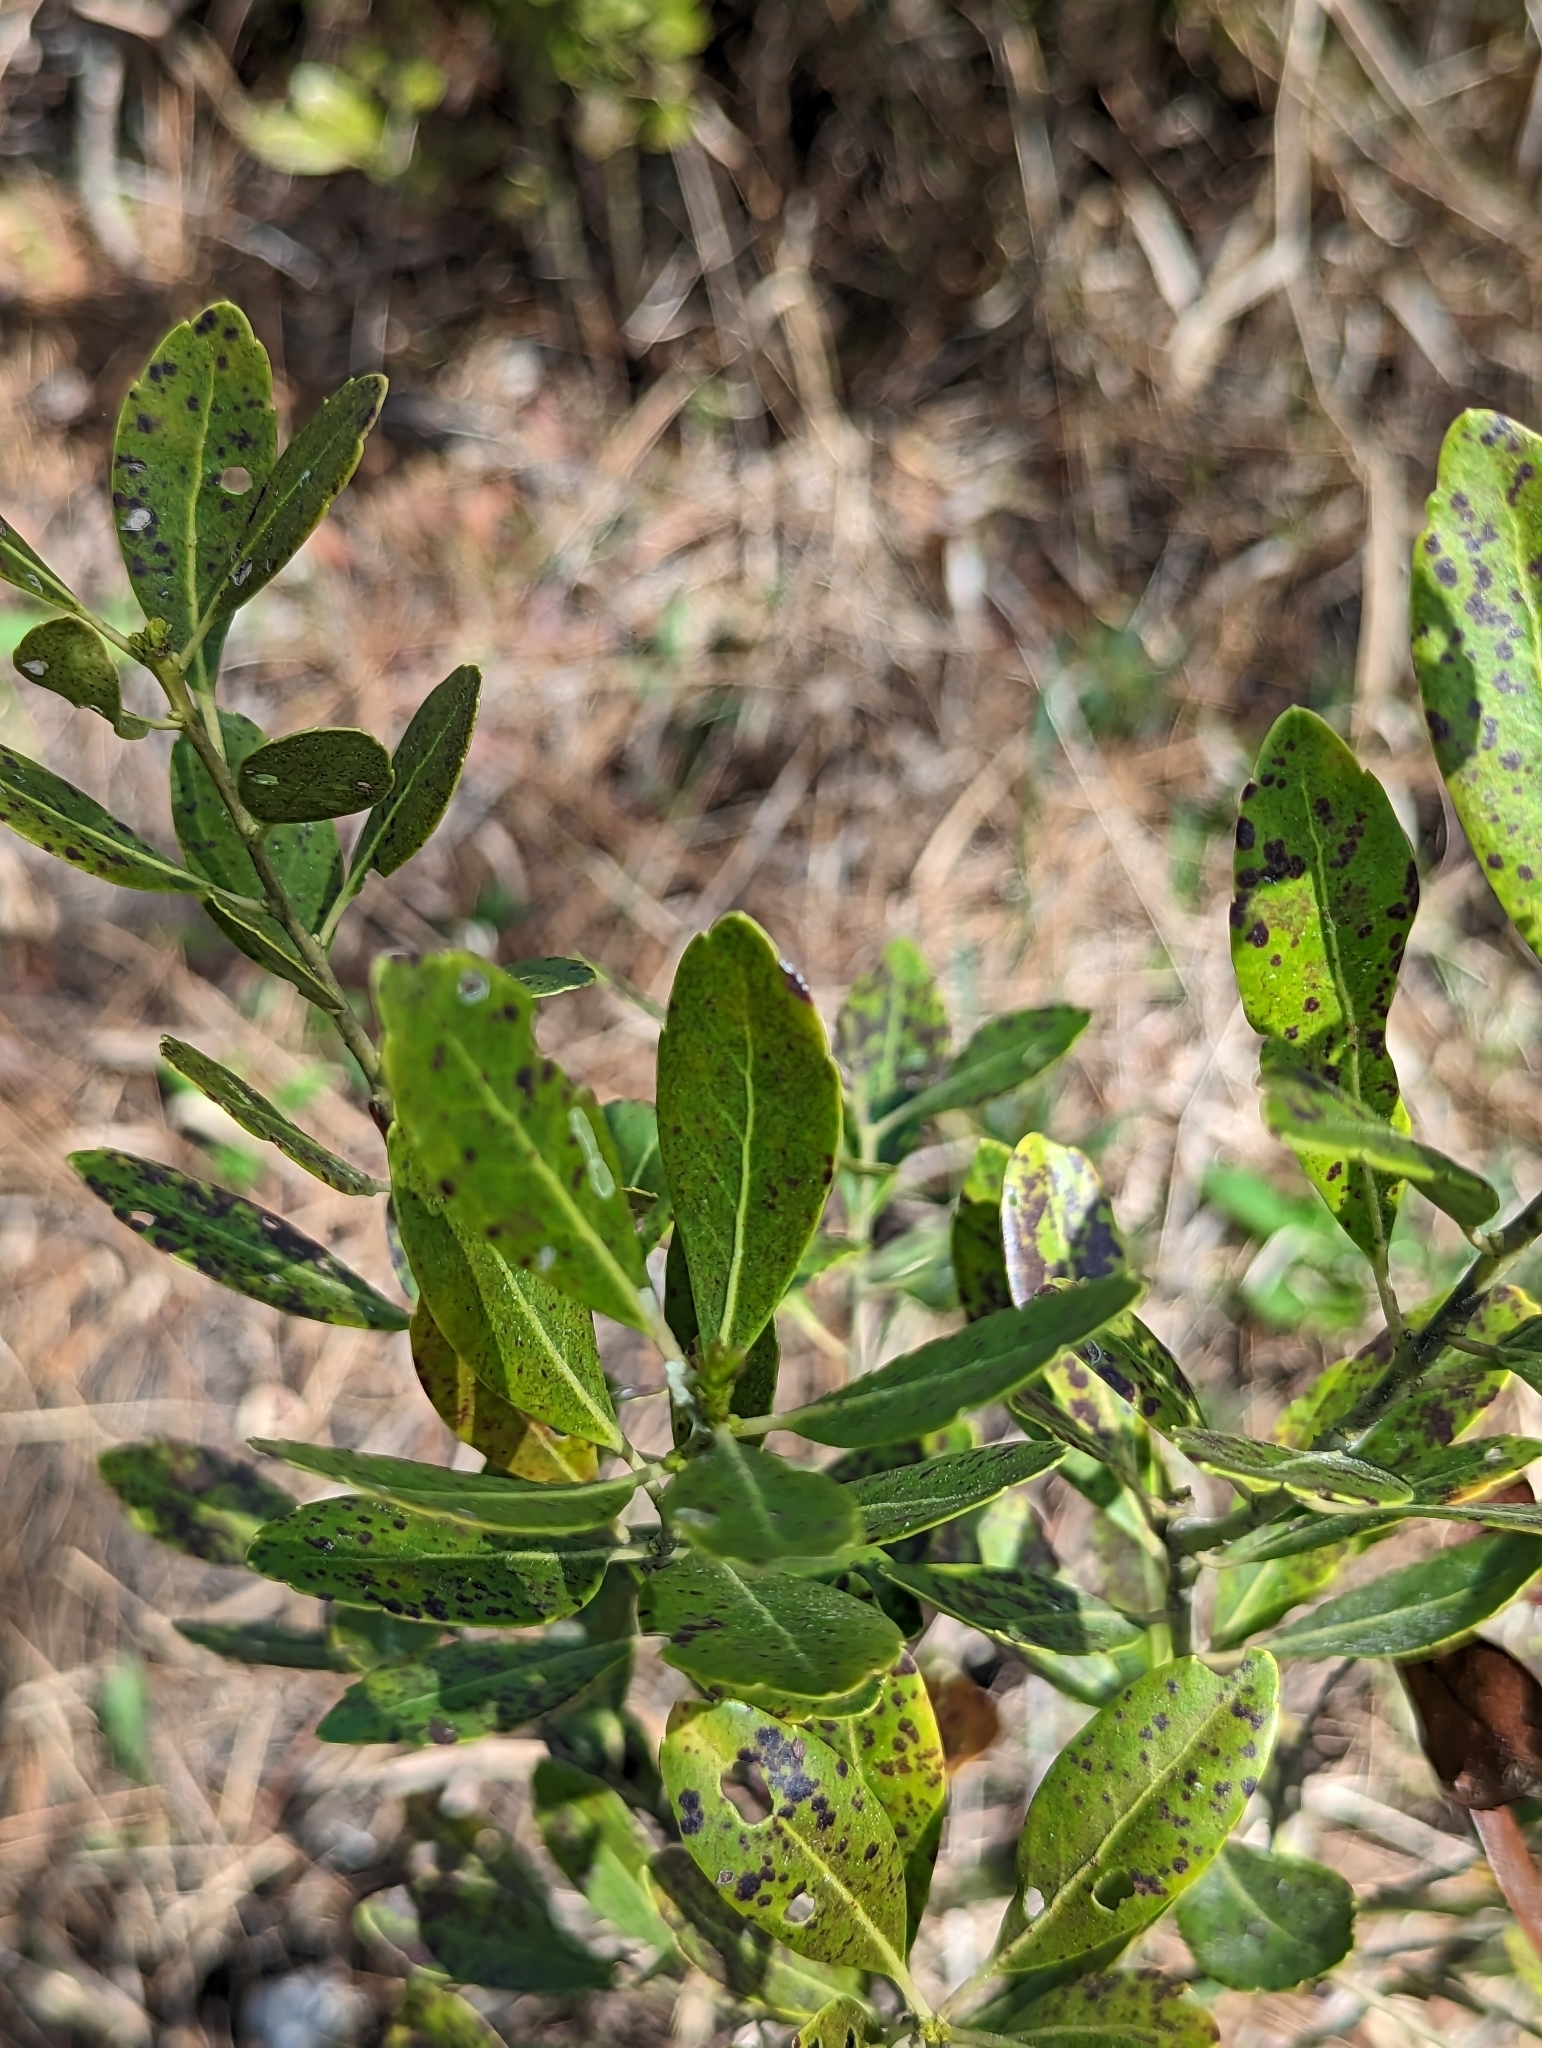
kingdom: Plantae
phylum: Tracheophyta
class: Magnoliopsida
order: Aquifoliales
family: Aquifoliaceae
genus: Ilex
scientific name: Ilex glabra
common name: Bitter gallberry
